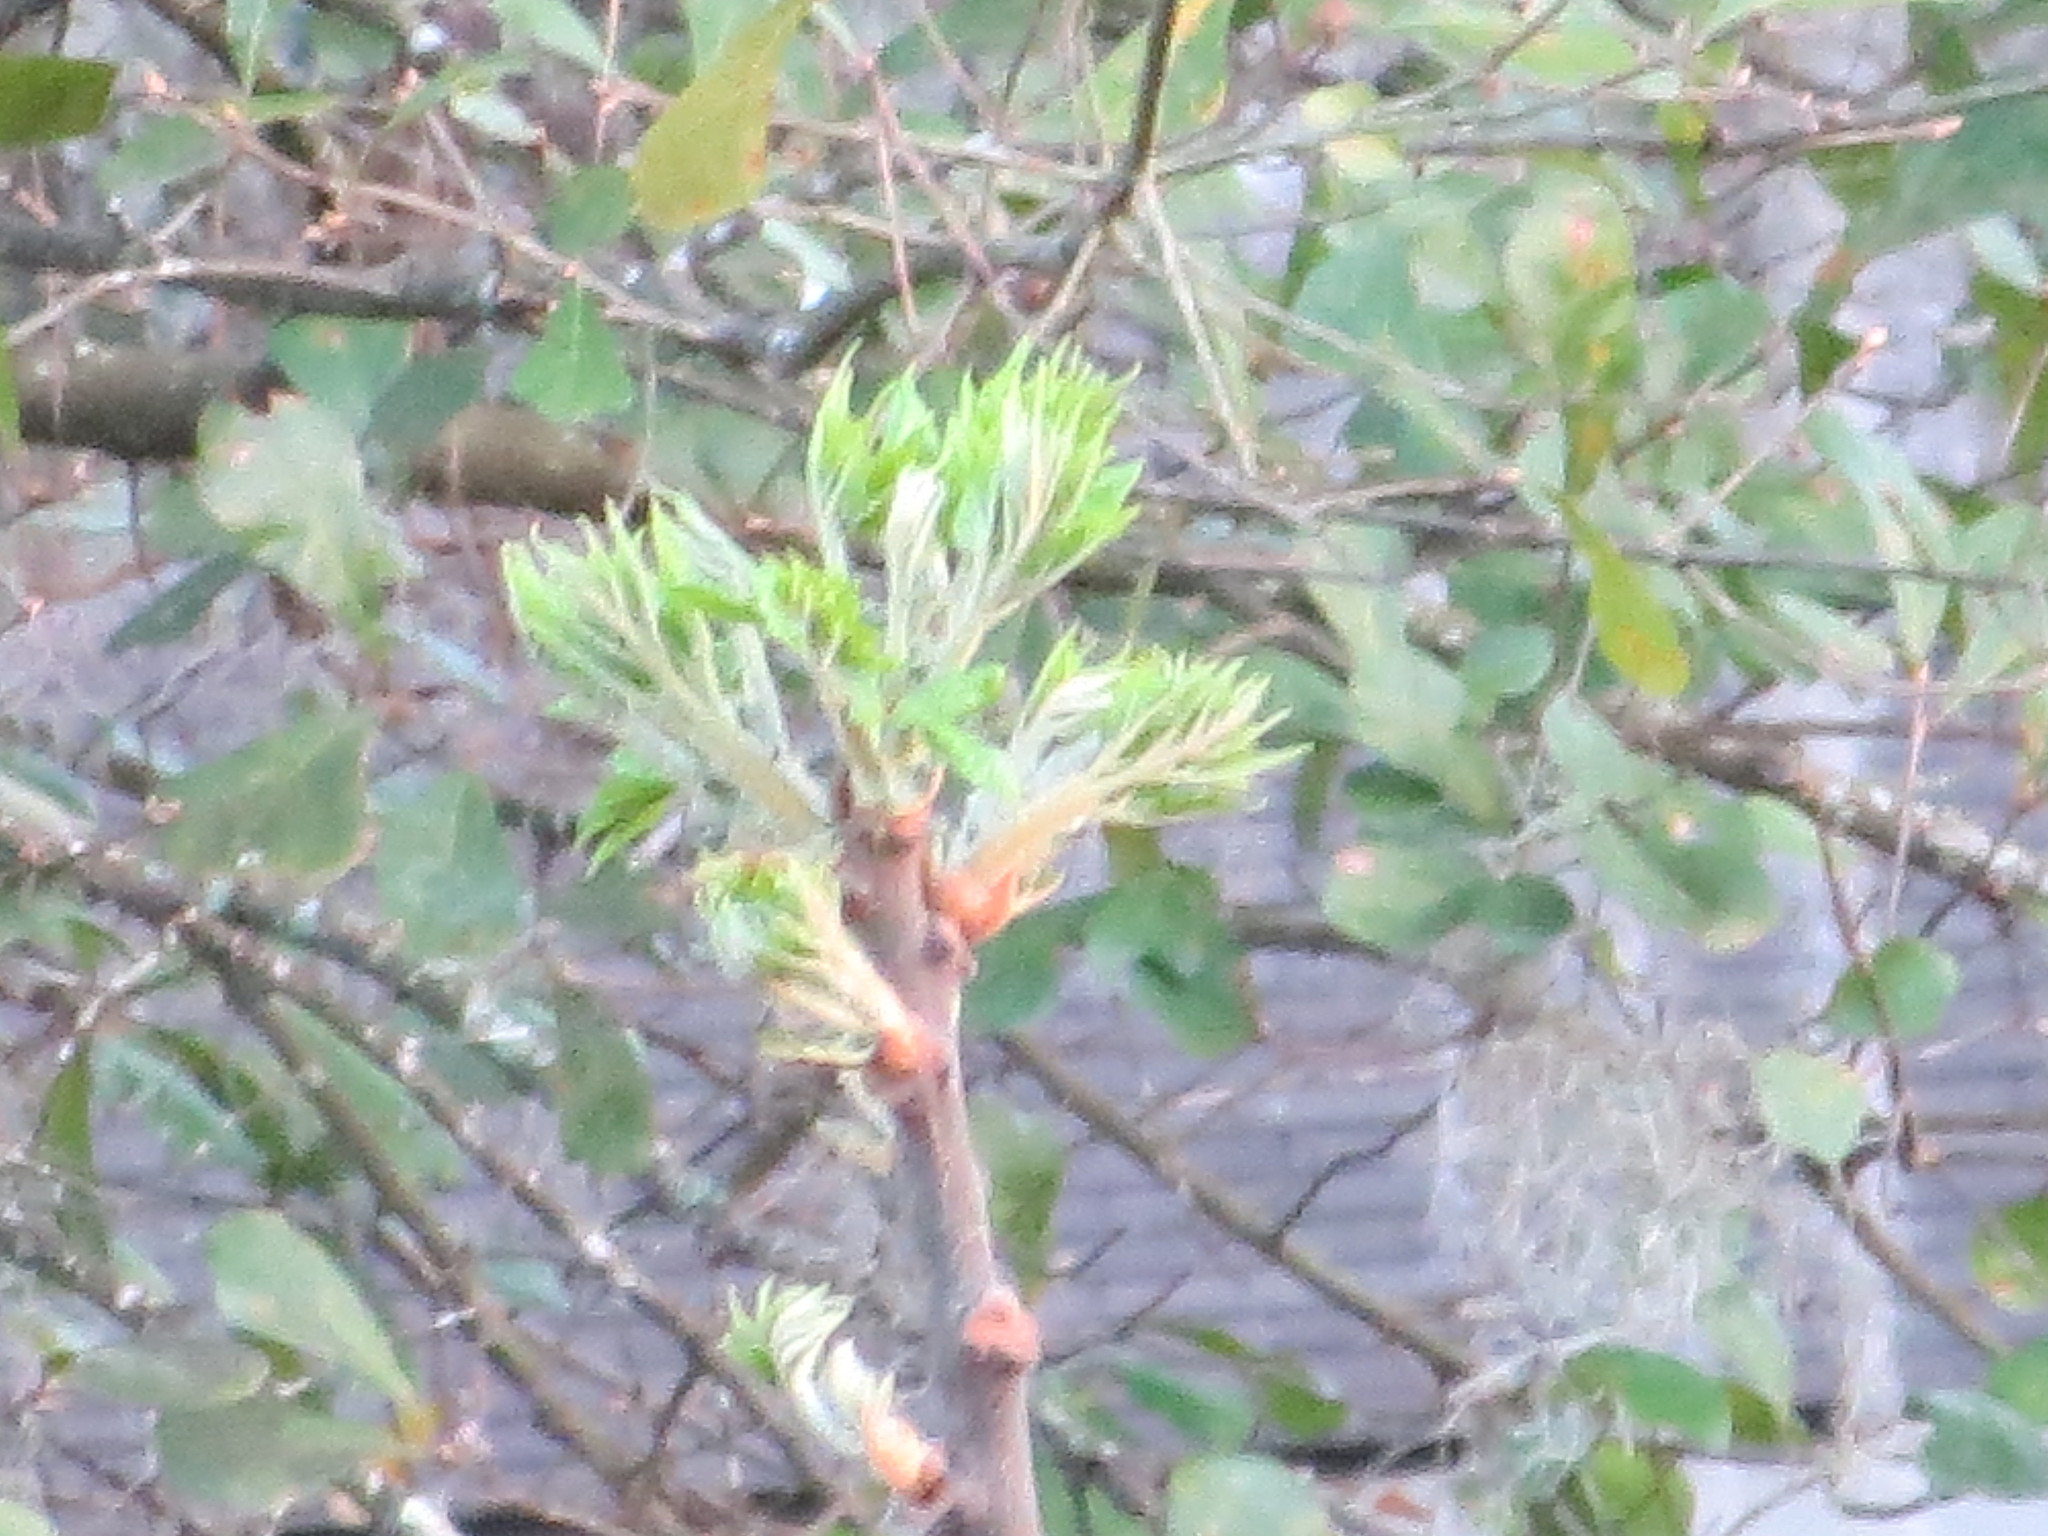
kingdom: Plantae
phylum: Tracheophyta
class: Magnoliopsida
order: Sapindales
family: Meliaceae
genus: Melia
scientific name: Melia azedarach
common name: Chinaberrytree
